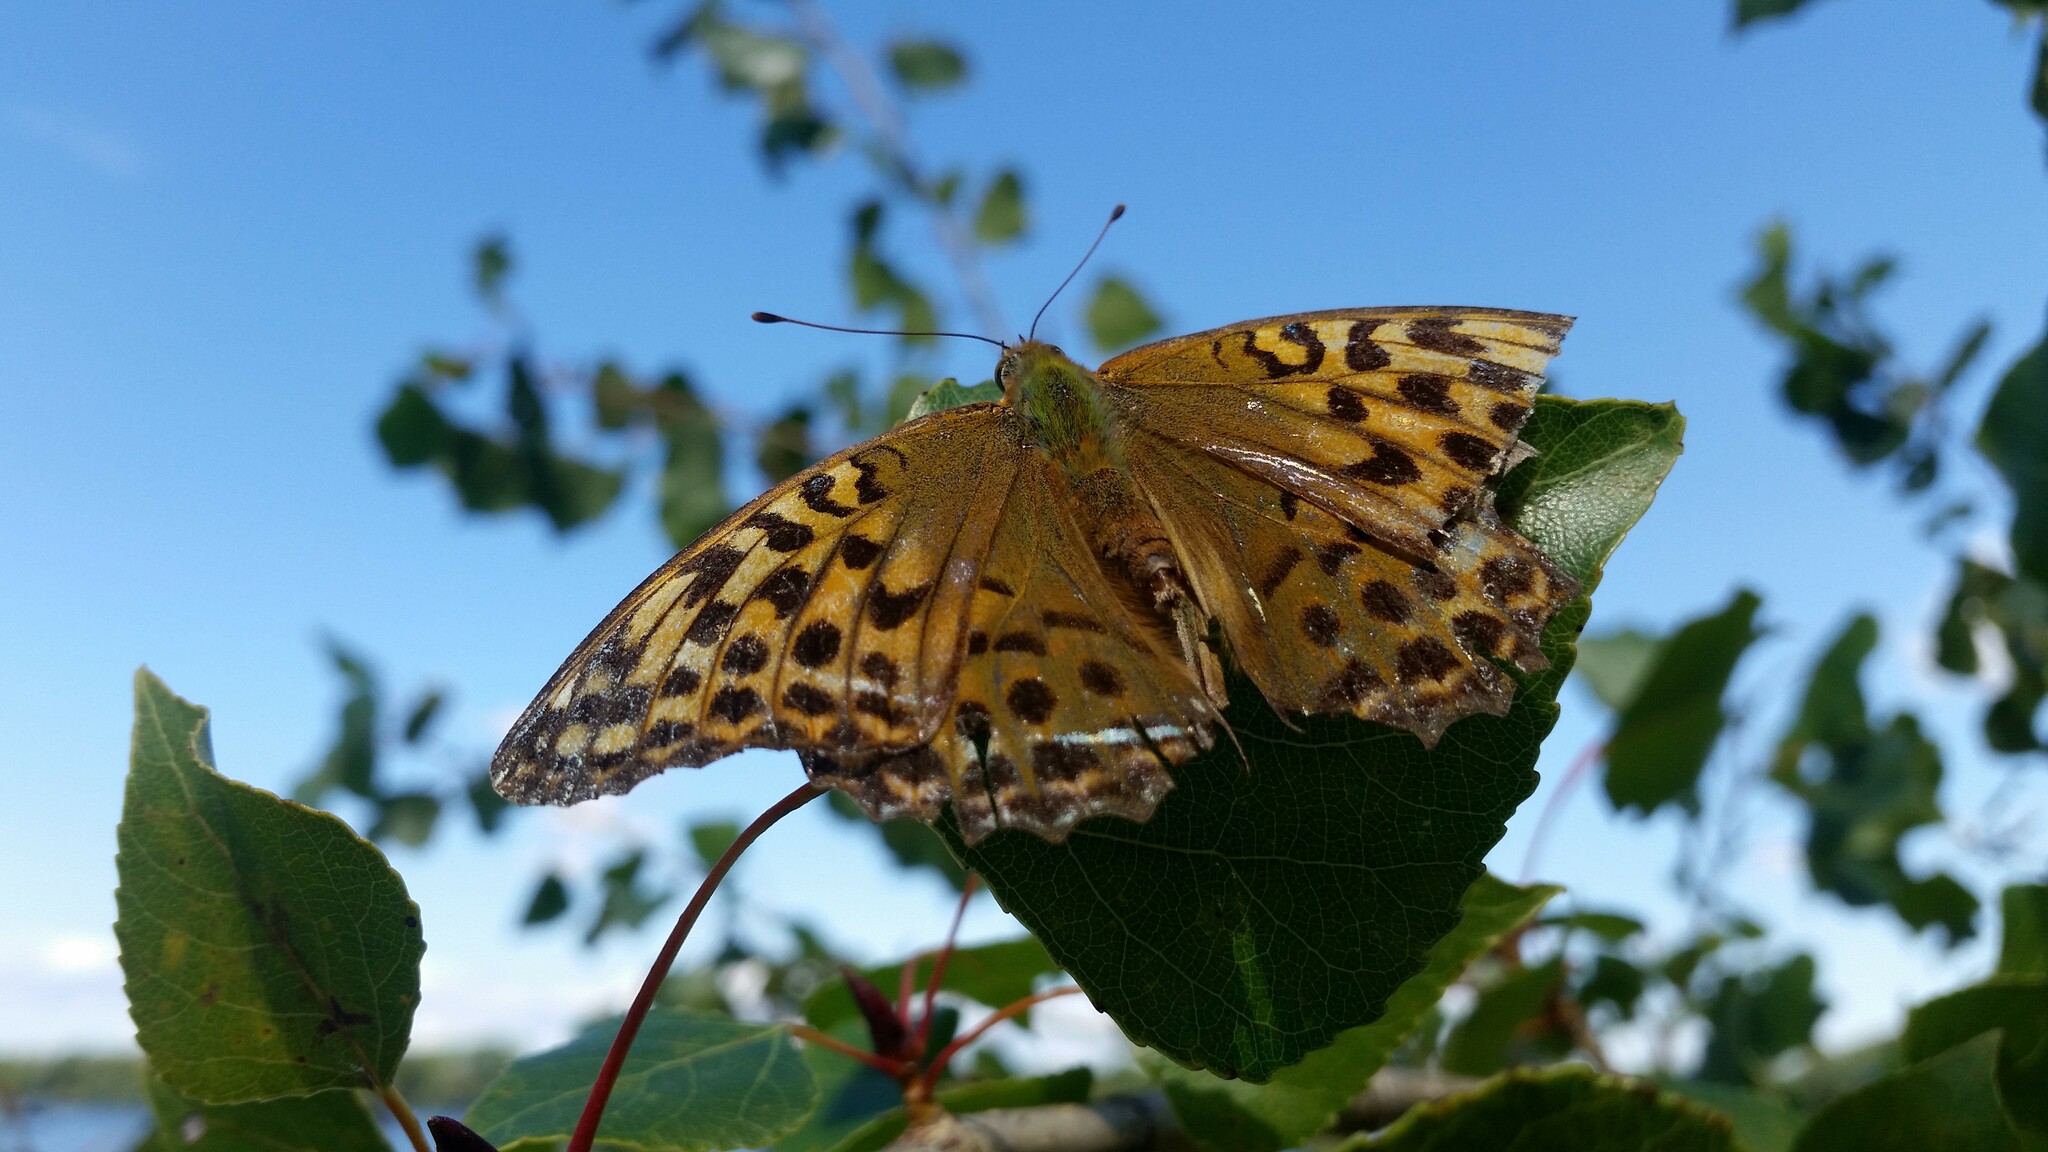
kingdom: Animalia
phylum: Arthropoda
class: Insecta
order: Lepidoptera
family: Nymphalidae
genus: Argynnis
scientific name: Argynnis paphia
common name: Silver-washed fritillary
